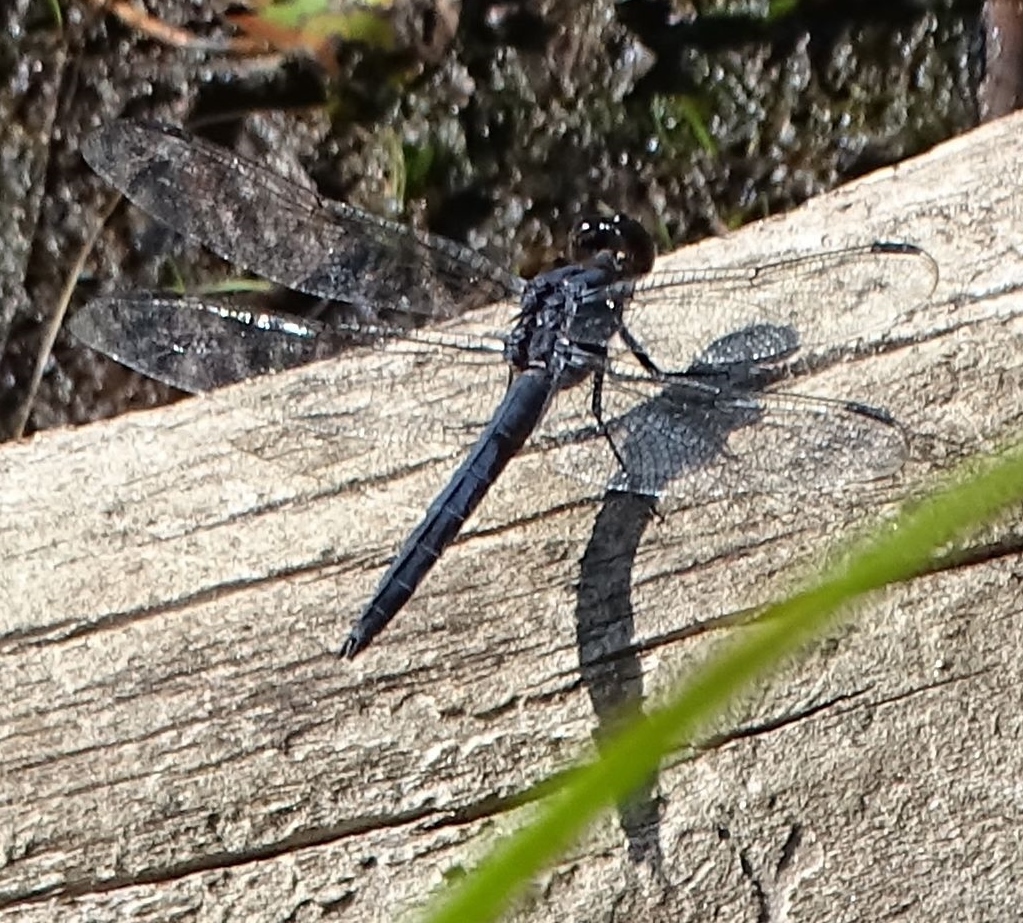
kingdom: Animalia
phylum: Arthropoda
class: Insecta
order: Odonata
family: Libellulidae
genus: Libellula
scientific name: Libellula incesta
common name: Slaty skimmer
